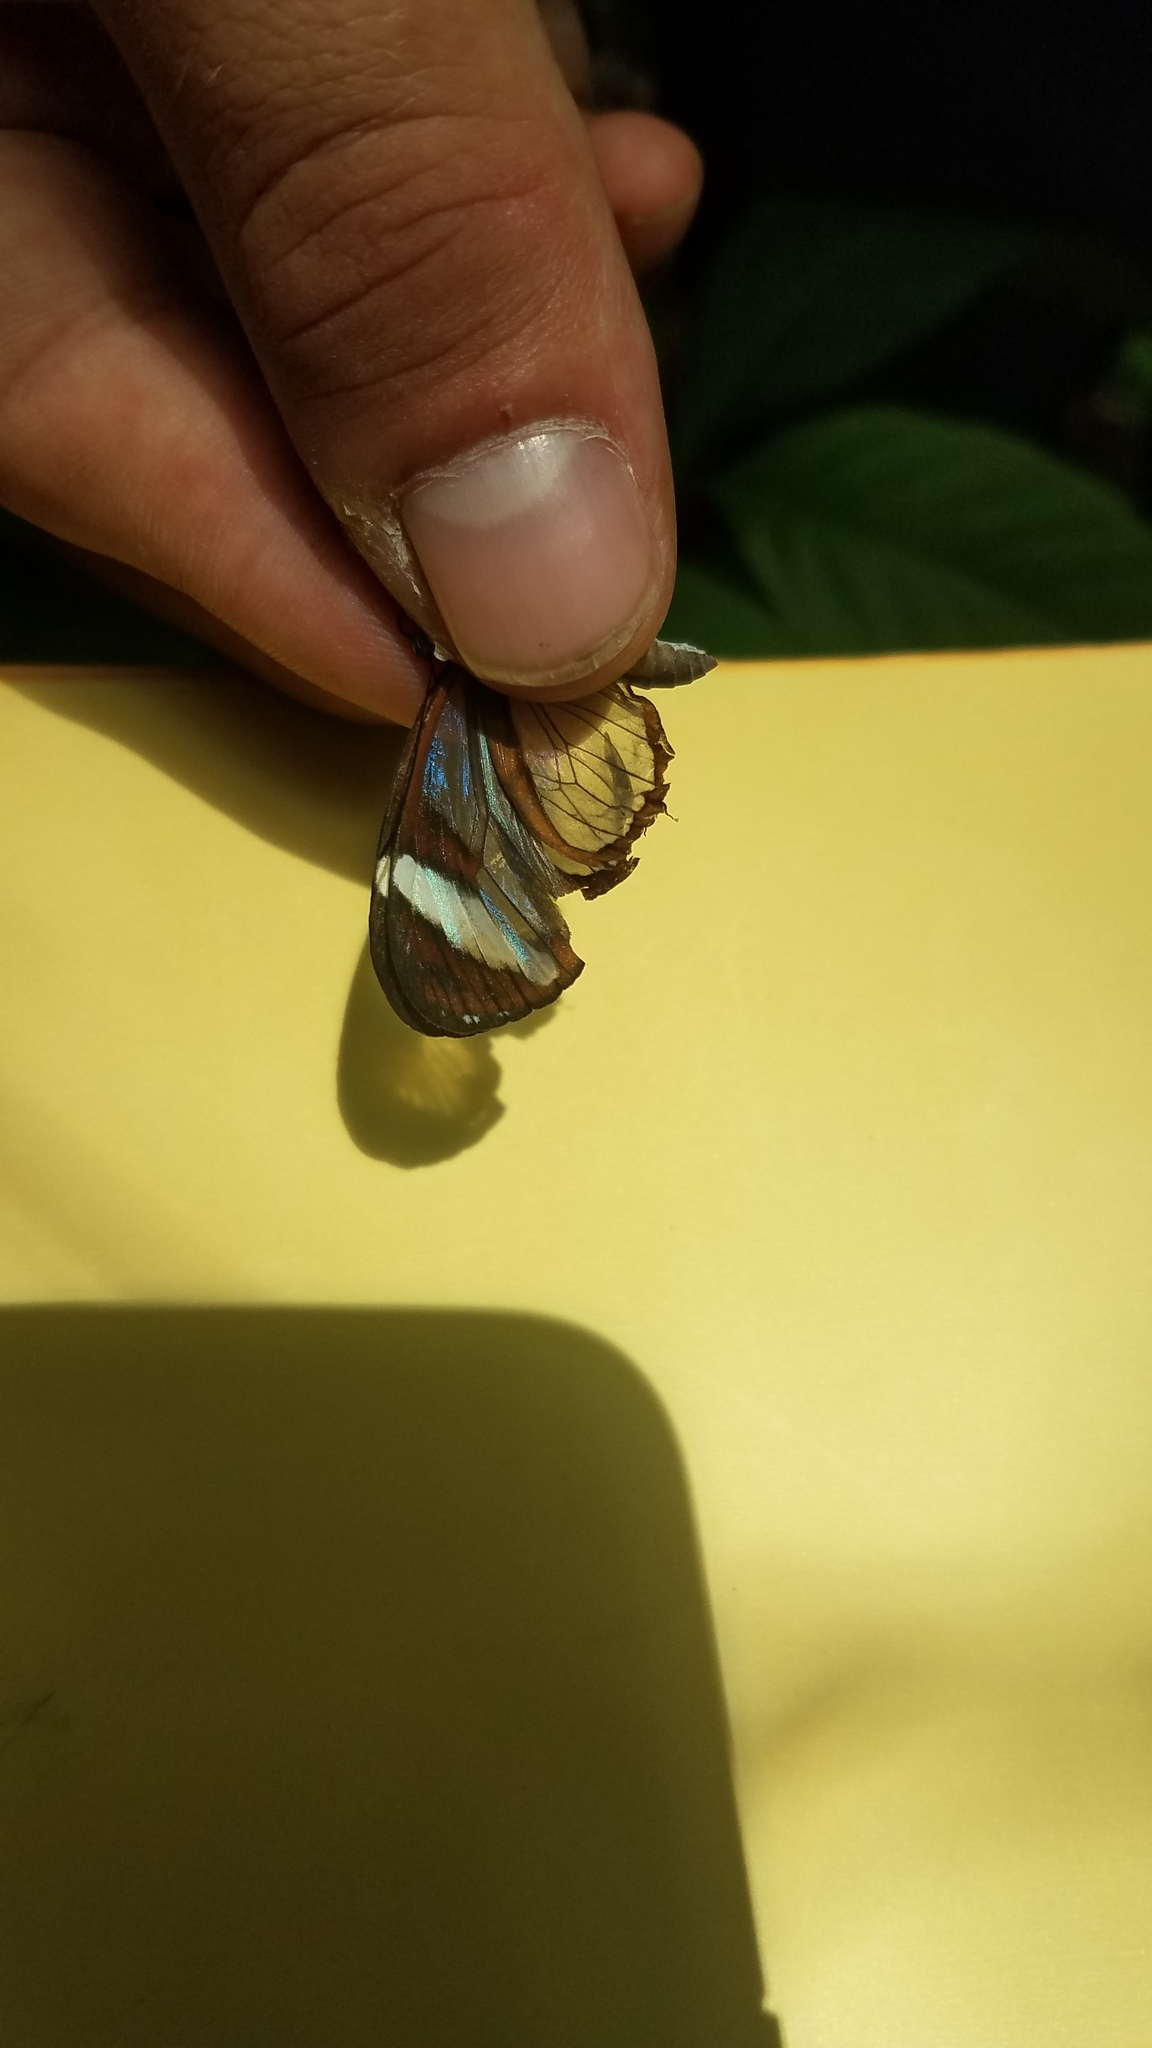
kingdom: Animalia
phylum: Arthropoda
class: Insecta
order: Lepidoptera
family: Nymphalidae
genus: Oleria
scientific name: Oleria paula
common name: Paula's clearwing
